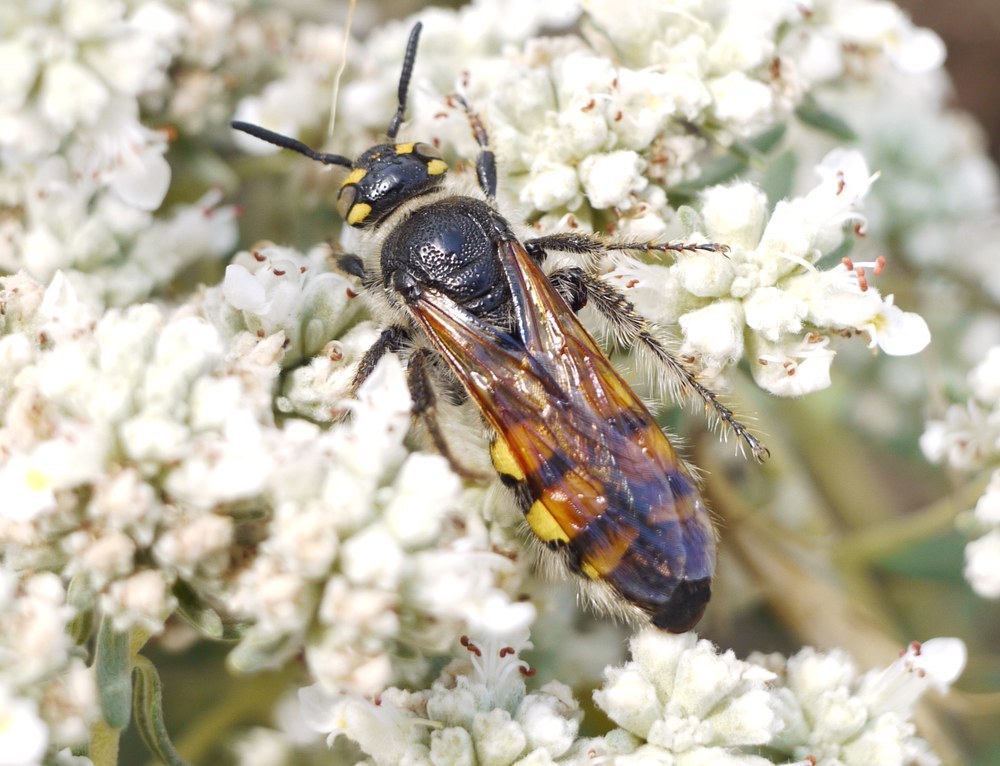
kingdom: Animalia
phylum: Arthropoda
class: Insecta
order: Hymenoptera
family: Vespidae
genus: Vespa
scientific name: Vespa sexmaculata
